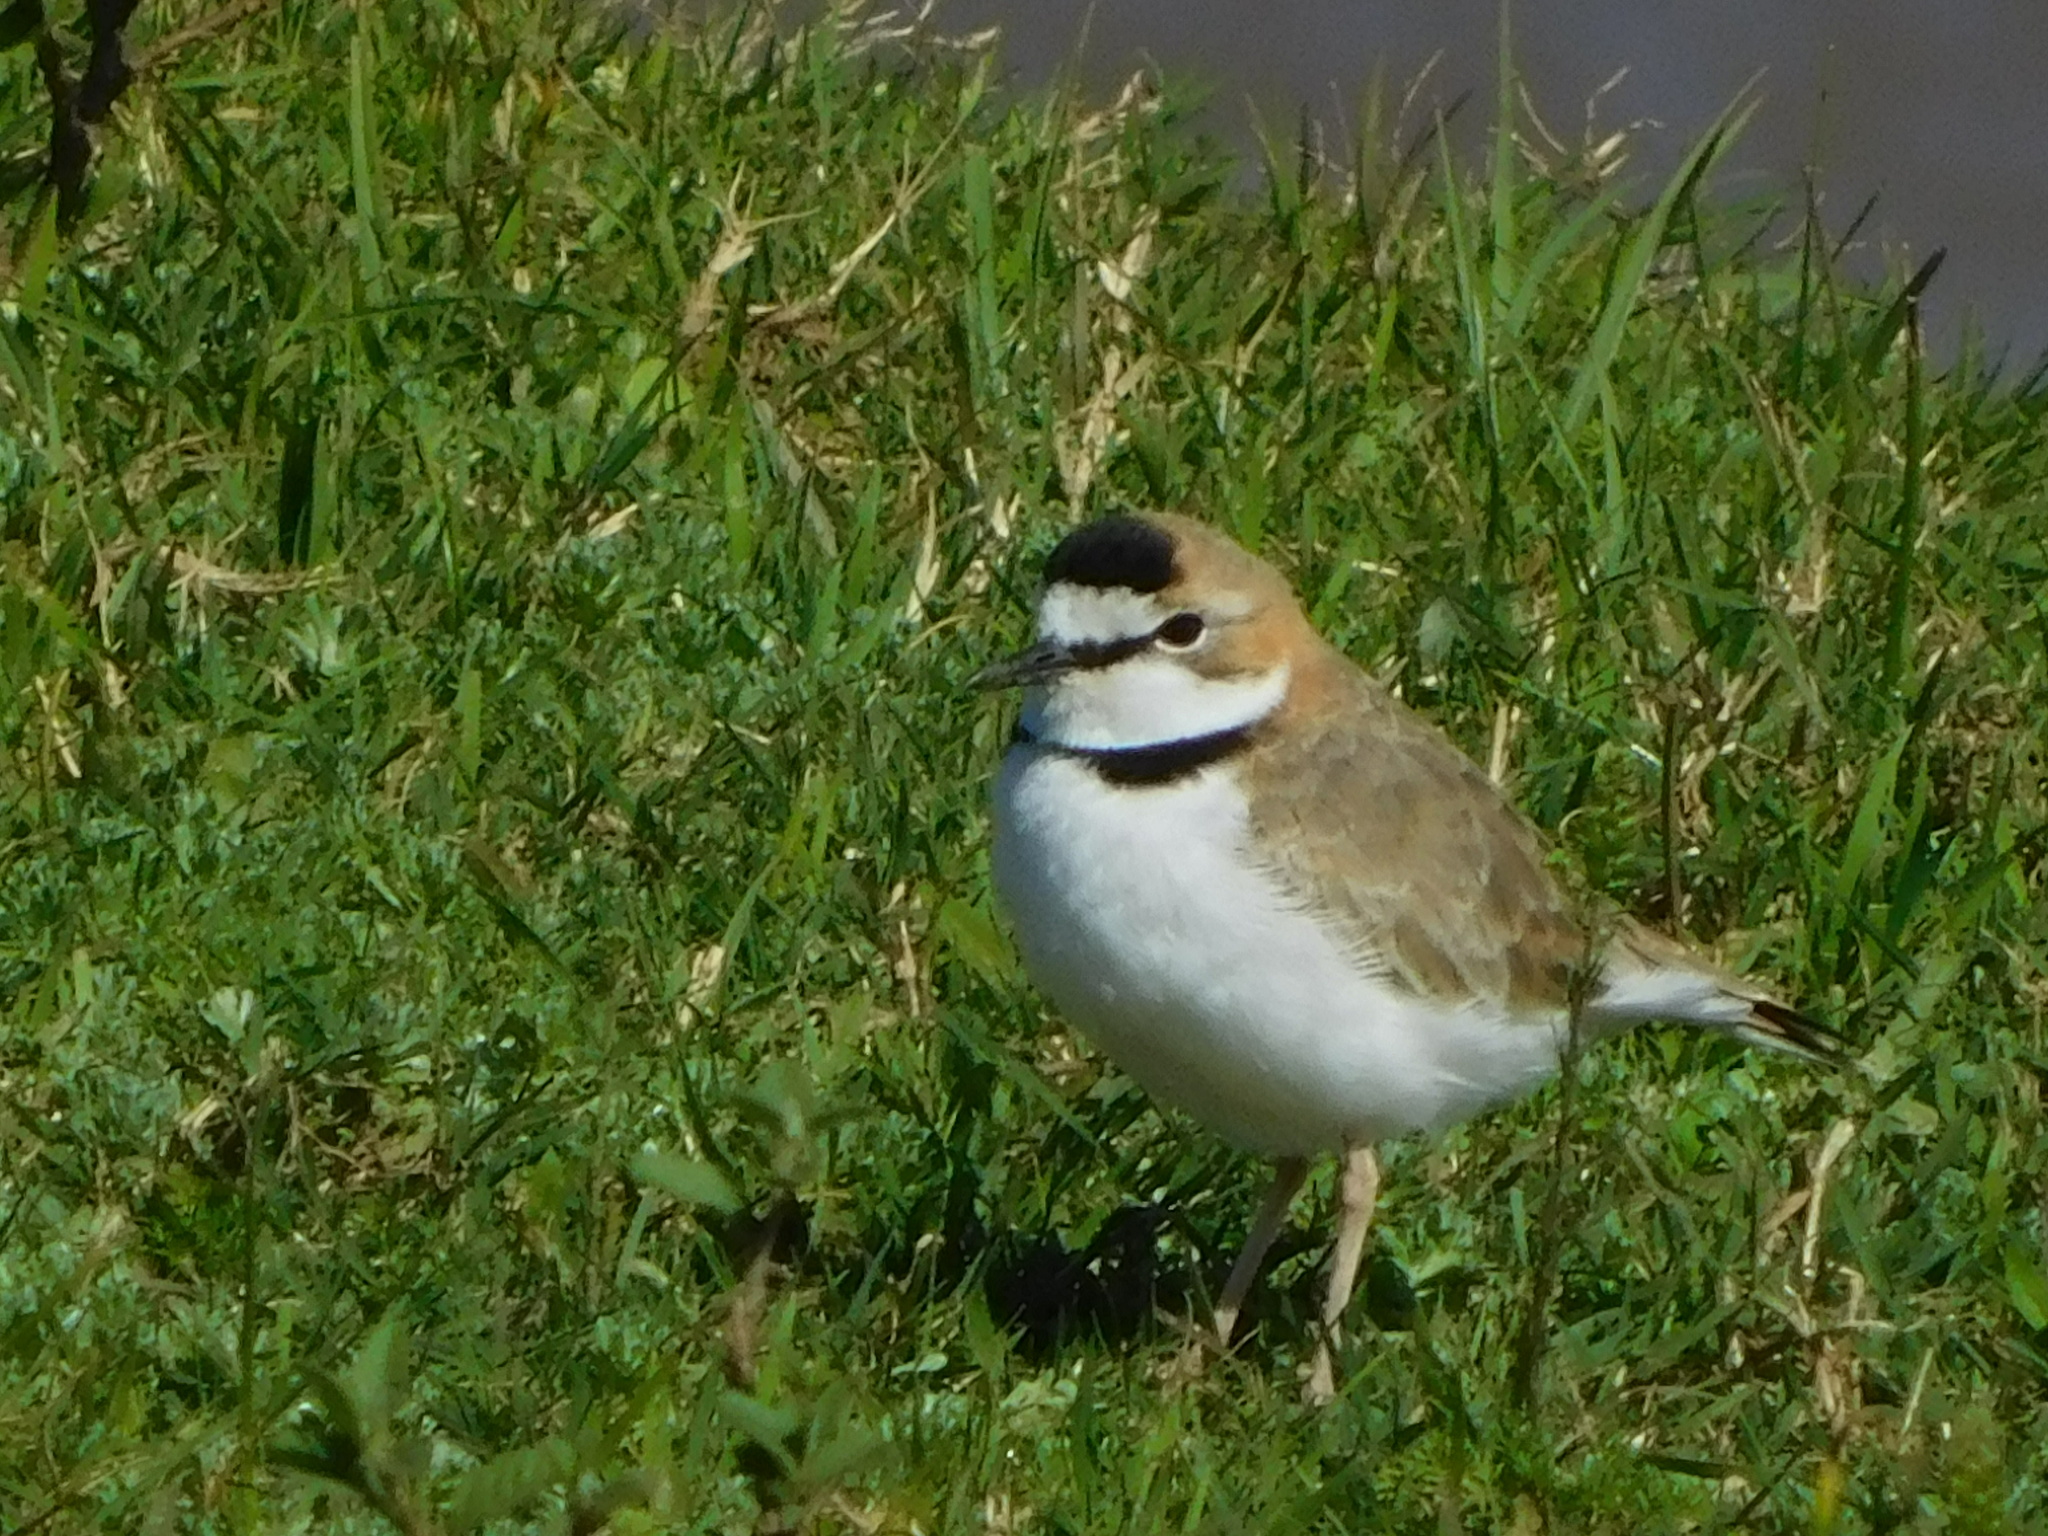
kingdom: Animalia
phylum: Chordata
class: Aves
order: Charadriiformes
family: Charadriidae
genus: Anarhynchus
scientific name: Anarhynchus
